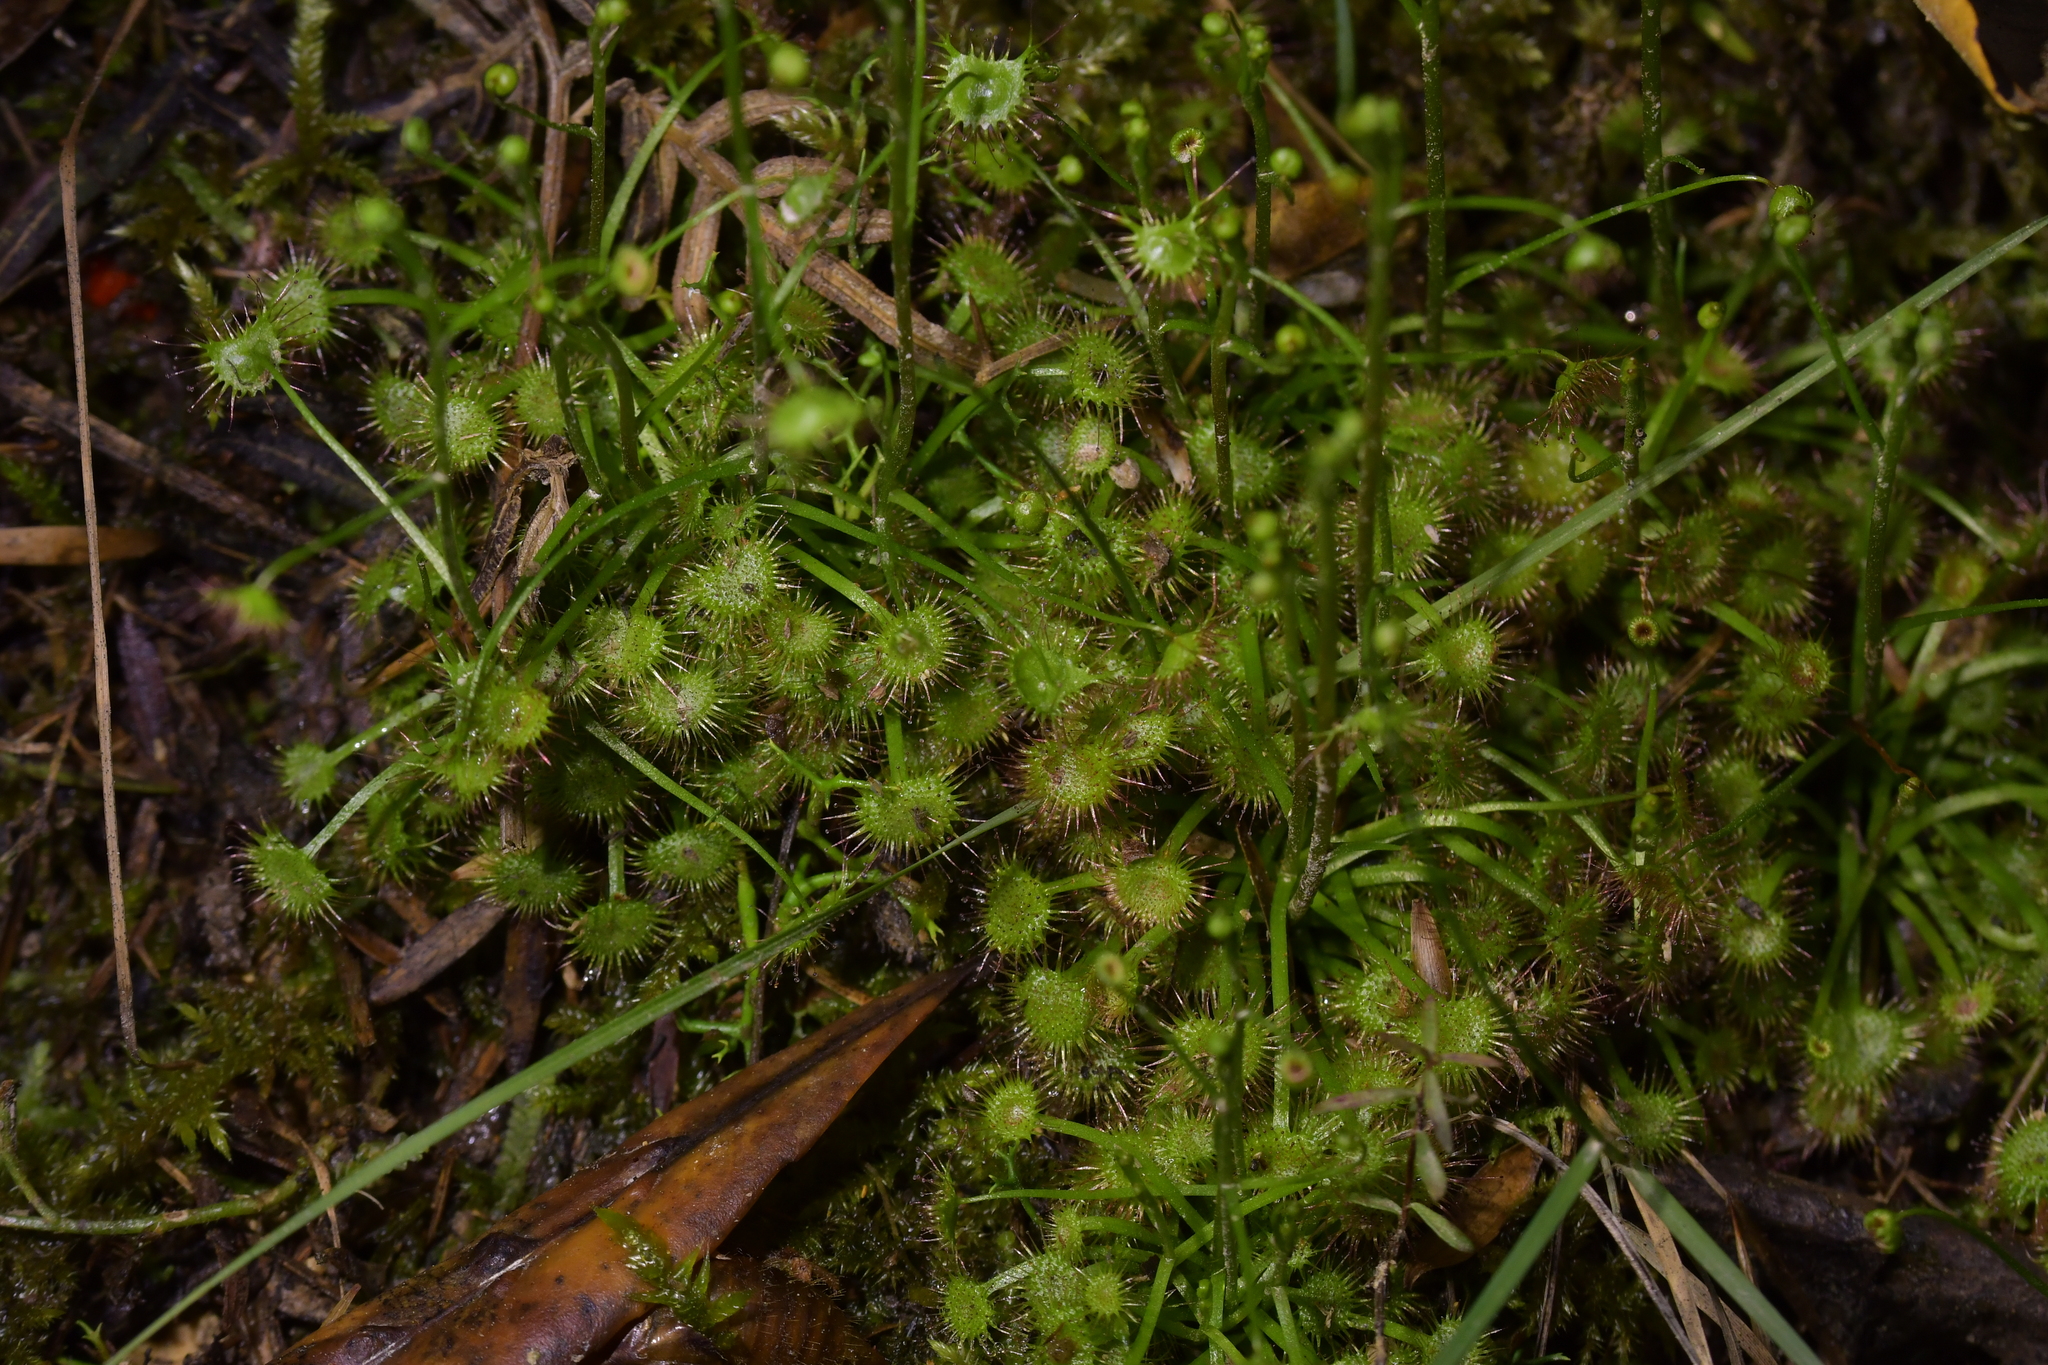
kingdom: Plantae
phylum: Tracheophyta
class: Magnoliopsida
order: Caryophyllales
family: Droseraceae
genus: Drosera
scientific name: Drosera peltata
